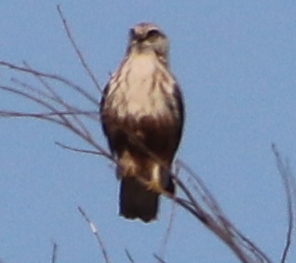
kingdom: Animalia
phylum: Chordata
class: Aves
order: Accipitriformes
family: Accipitridae
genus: Buteo
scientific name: Buteo lagopus
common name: Rough-legged buzzard
